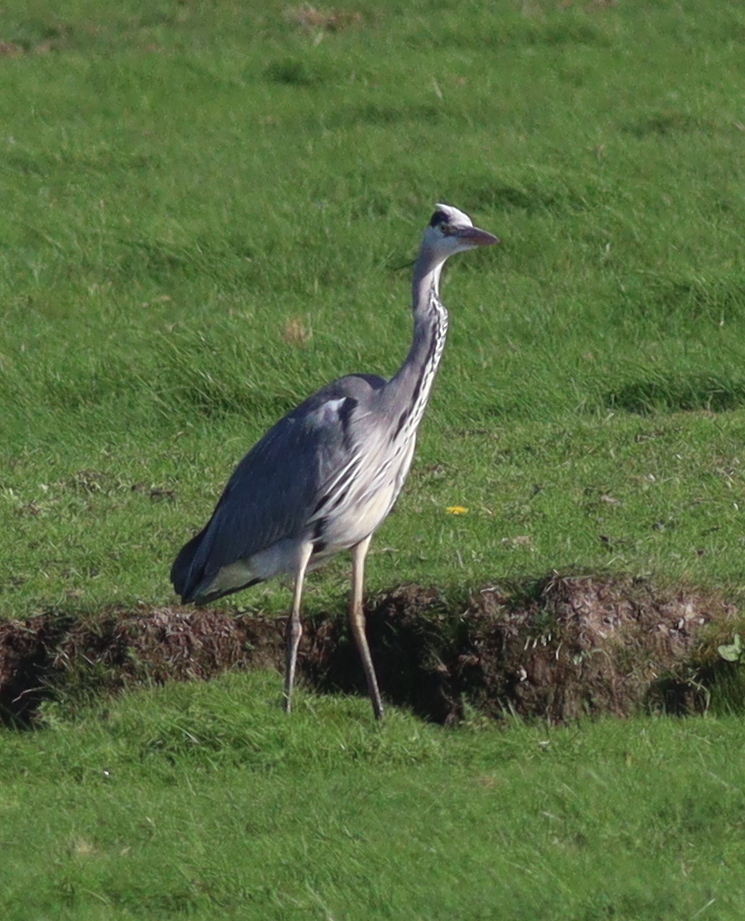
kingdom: Animalia
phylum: Chordata
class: Aves
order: Pelecaniformes
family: Ardeidae
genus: Ardea
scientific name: Ardea cinerea
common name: Grey heron
